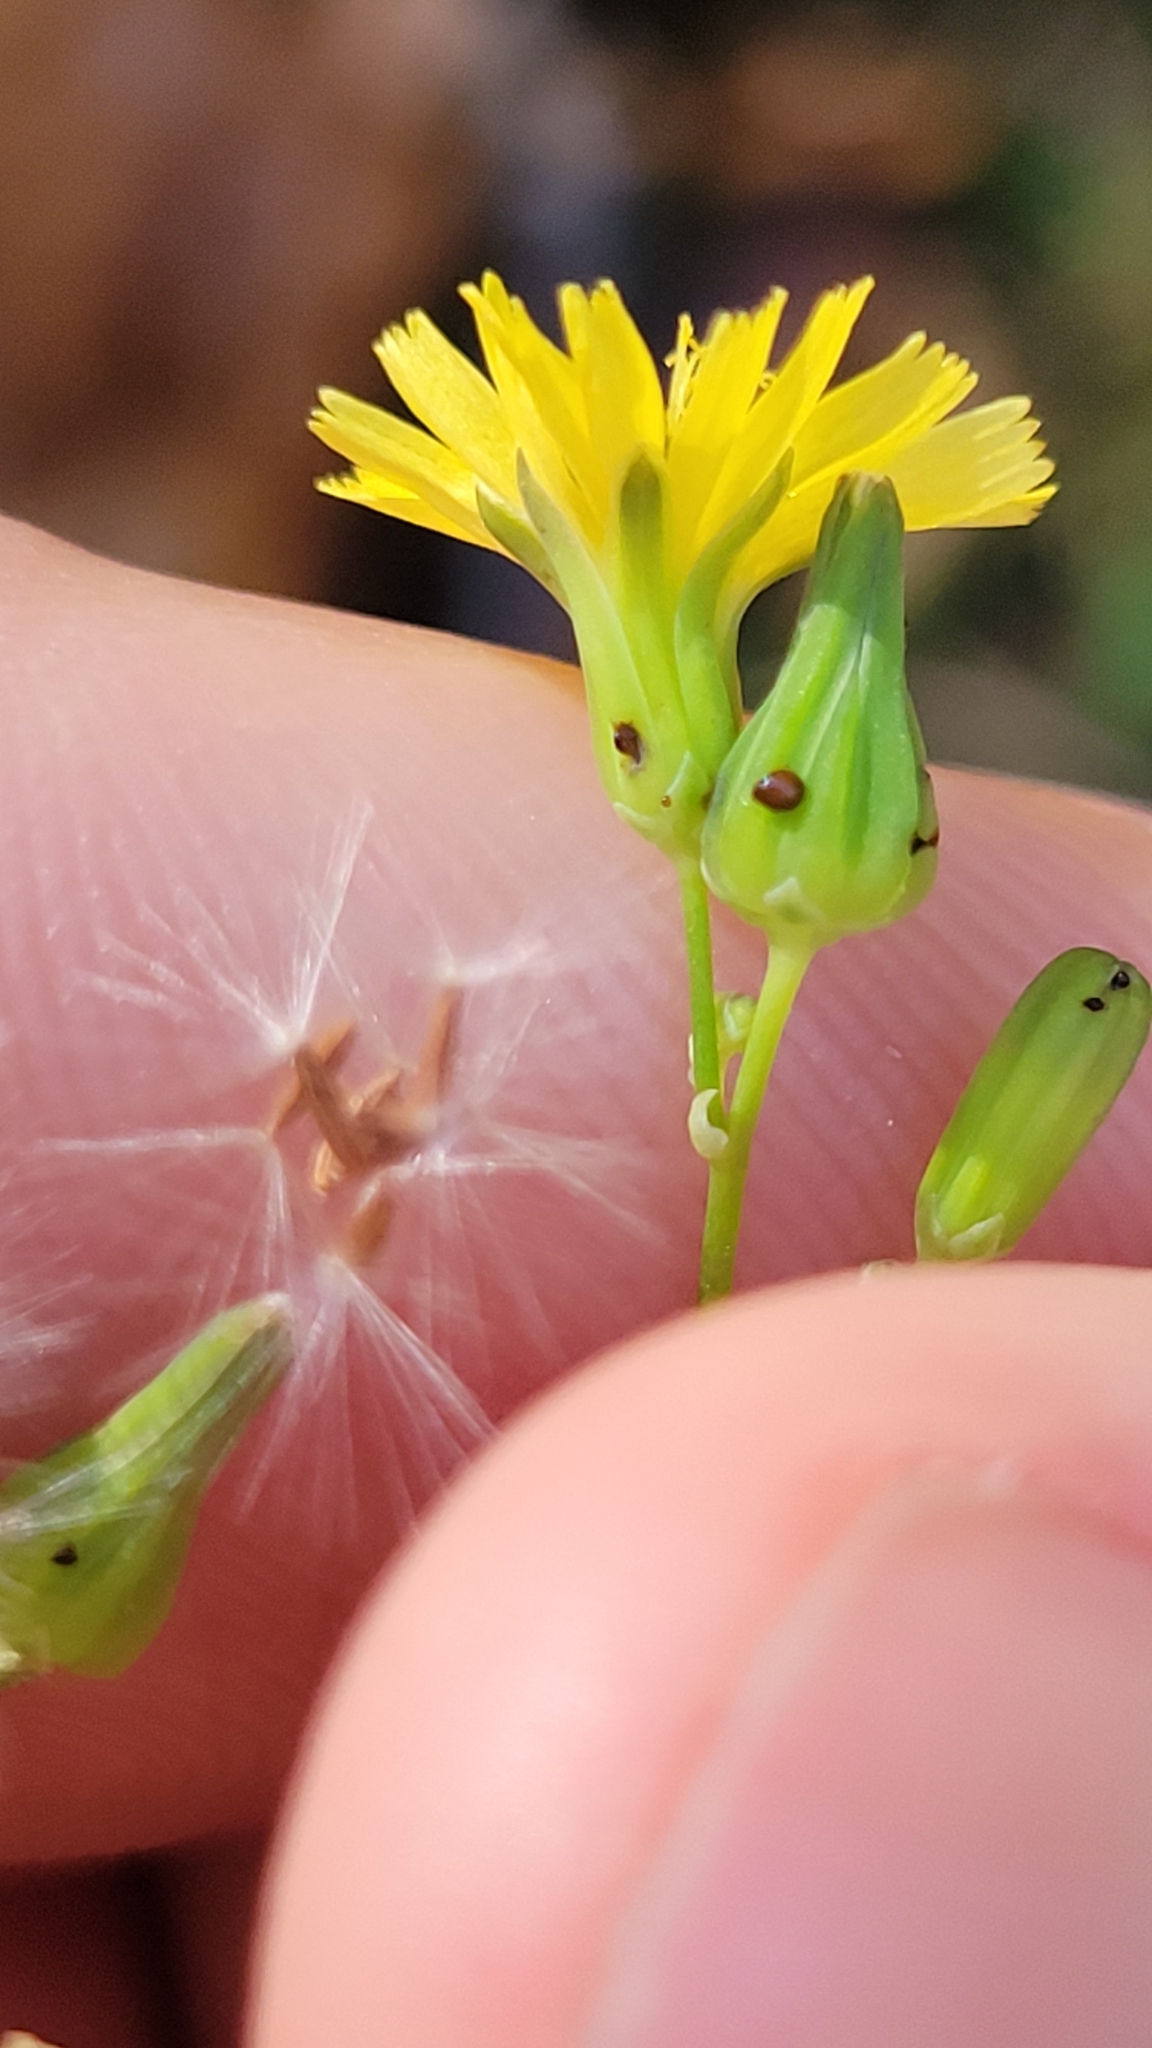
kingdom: Plantae
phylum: Tracheophyta
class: Magnoliopsida
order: Asterales
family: Asteraceae
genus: Youngia
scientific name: Youngia japonica
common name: Oriental false hawksbeard
